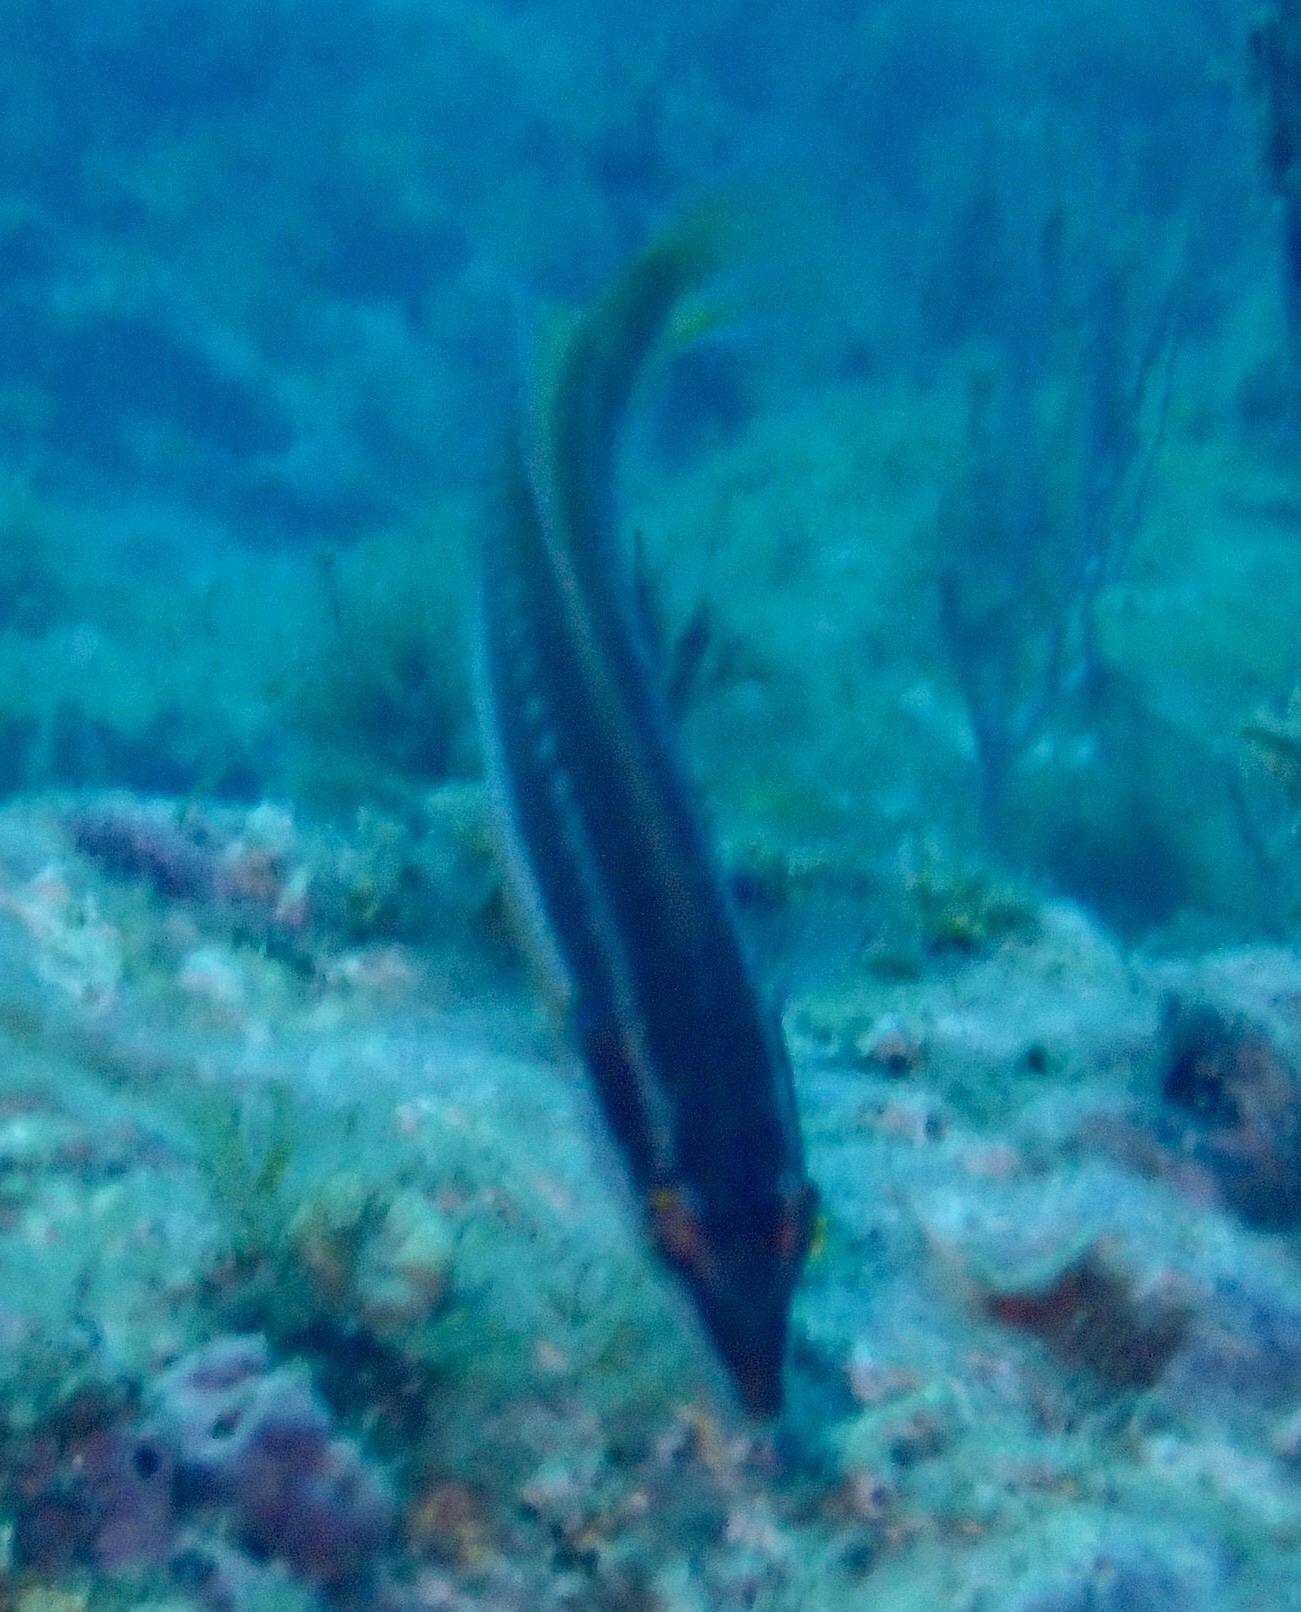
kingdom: Animalia
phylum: Chordata
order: Perciformes
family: Labridae
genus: Coris
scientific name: Coris julis
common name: Rainbow wrasse
